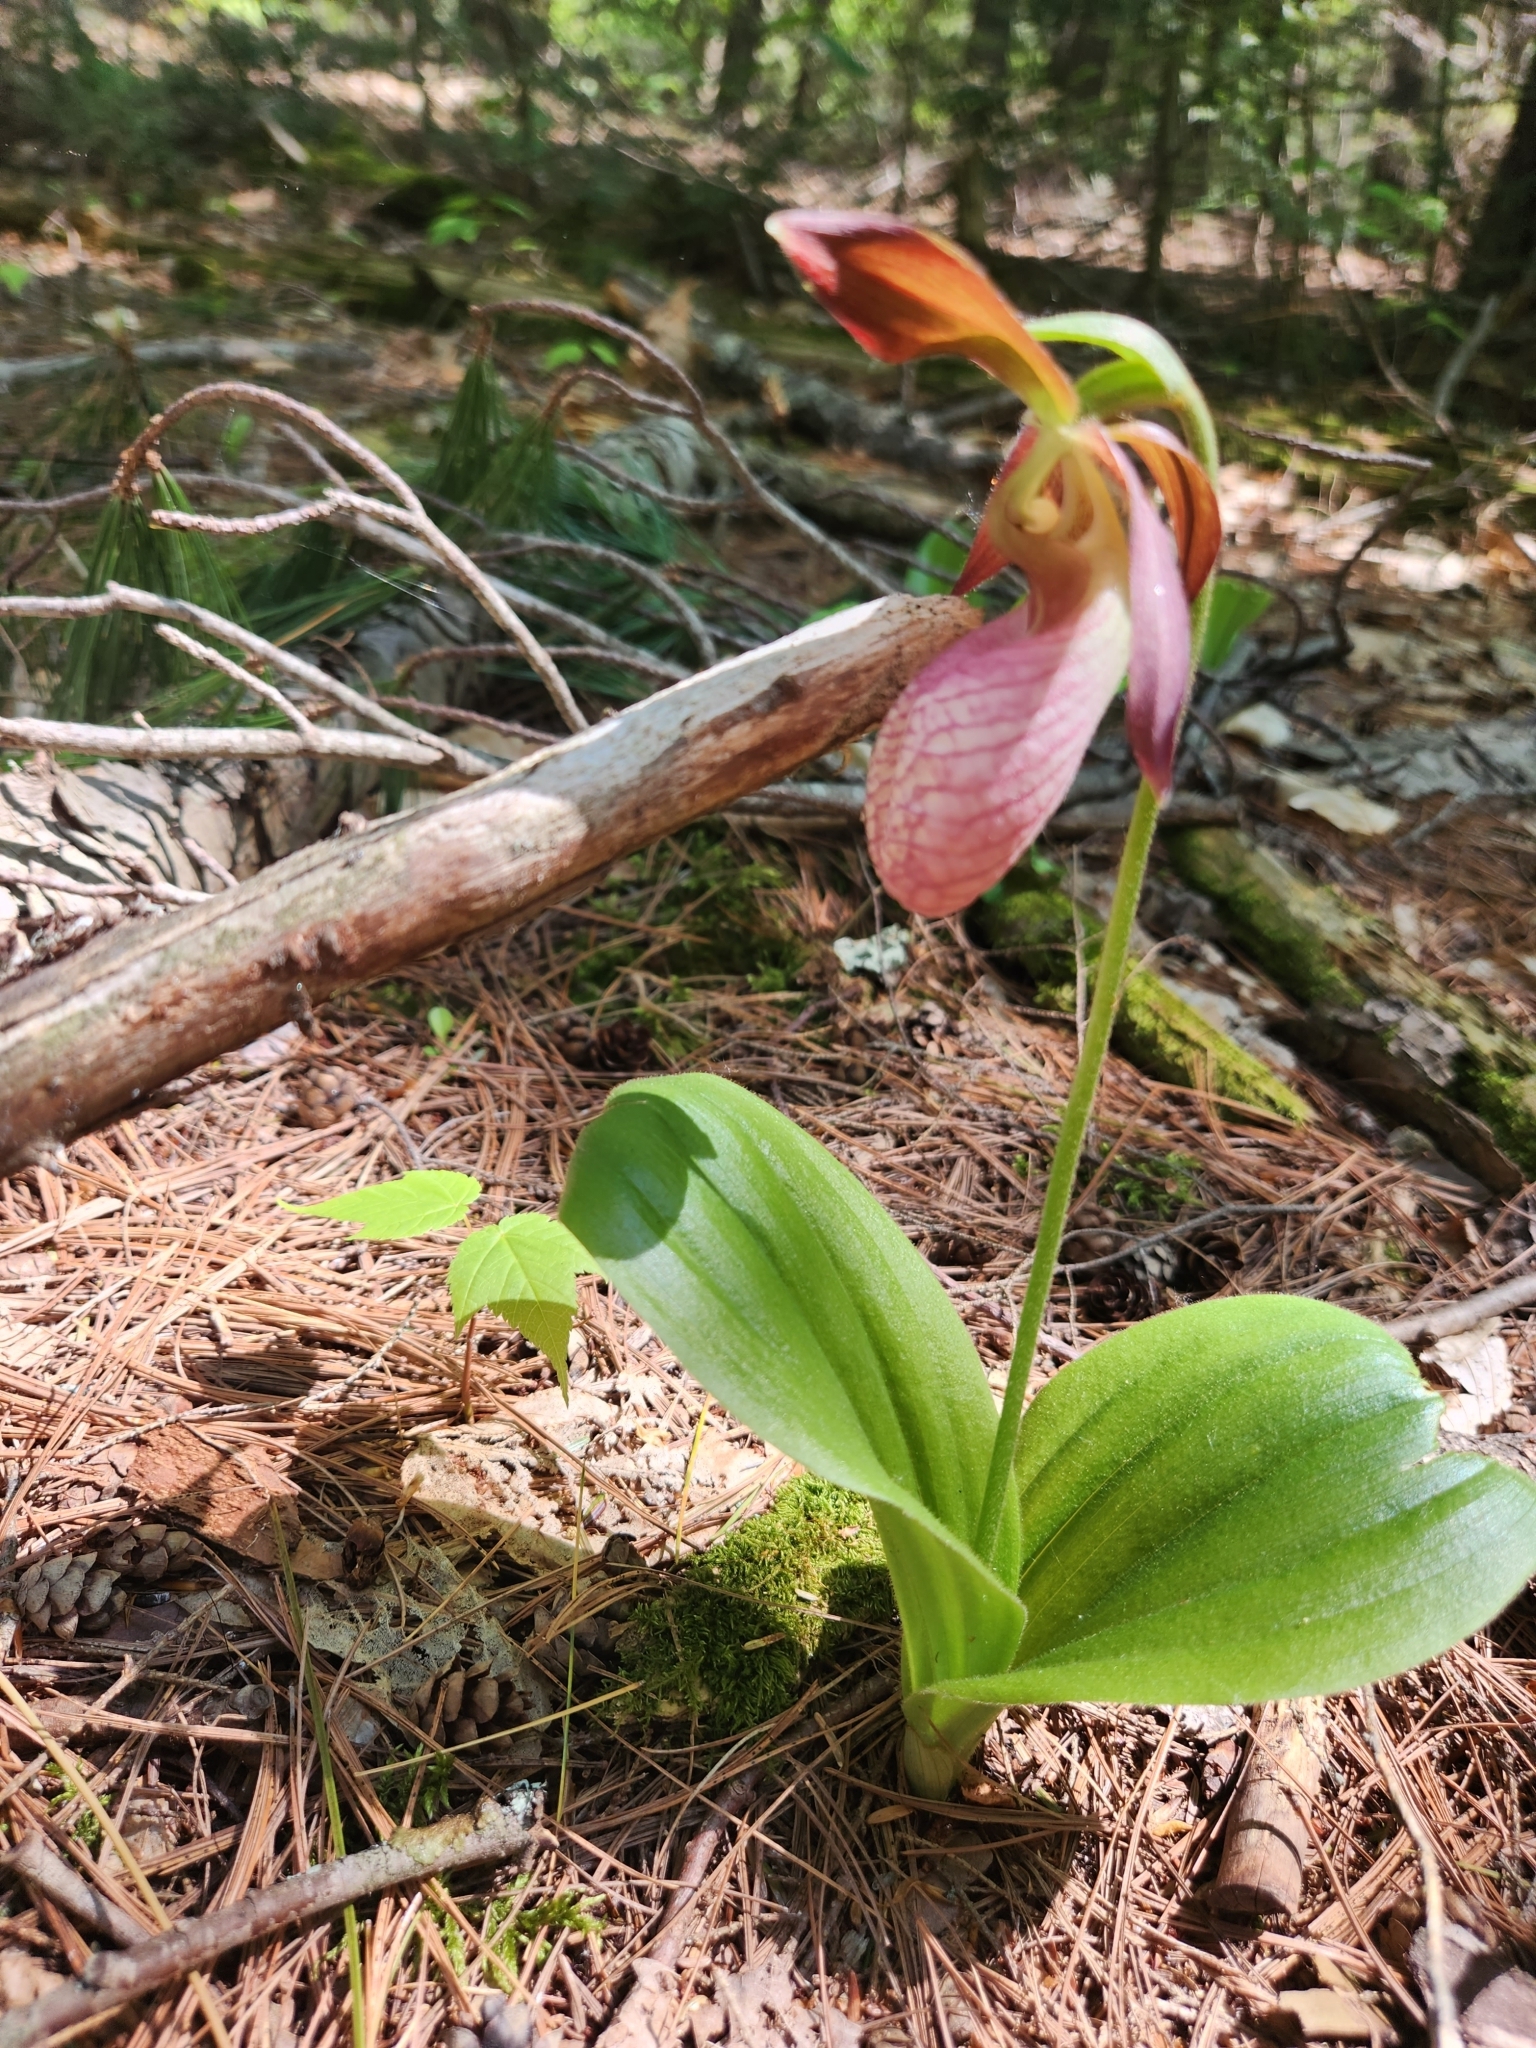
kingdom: Plantae
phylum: Tracheophyta
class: Liliopsida
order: Asparagales
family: Orchidaceae
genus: Cypripedium
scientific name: Cypripedium acaule
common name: Pink lady's-slipper
